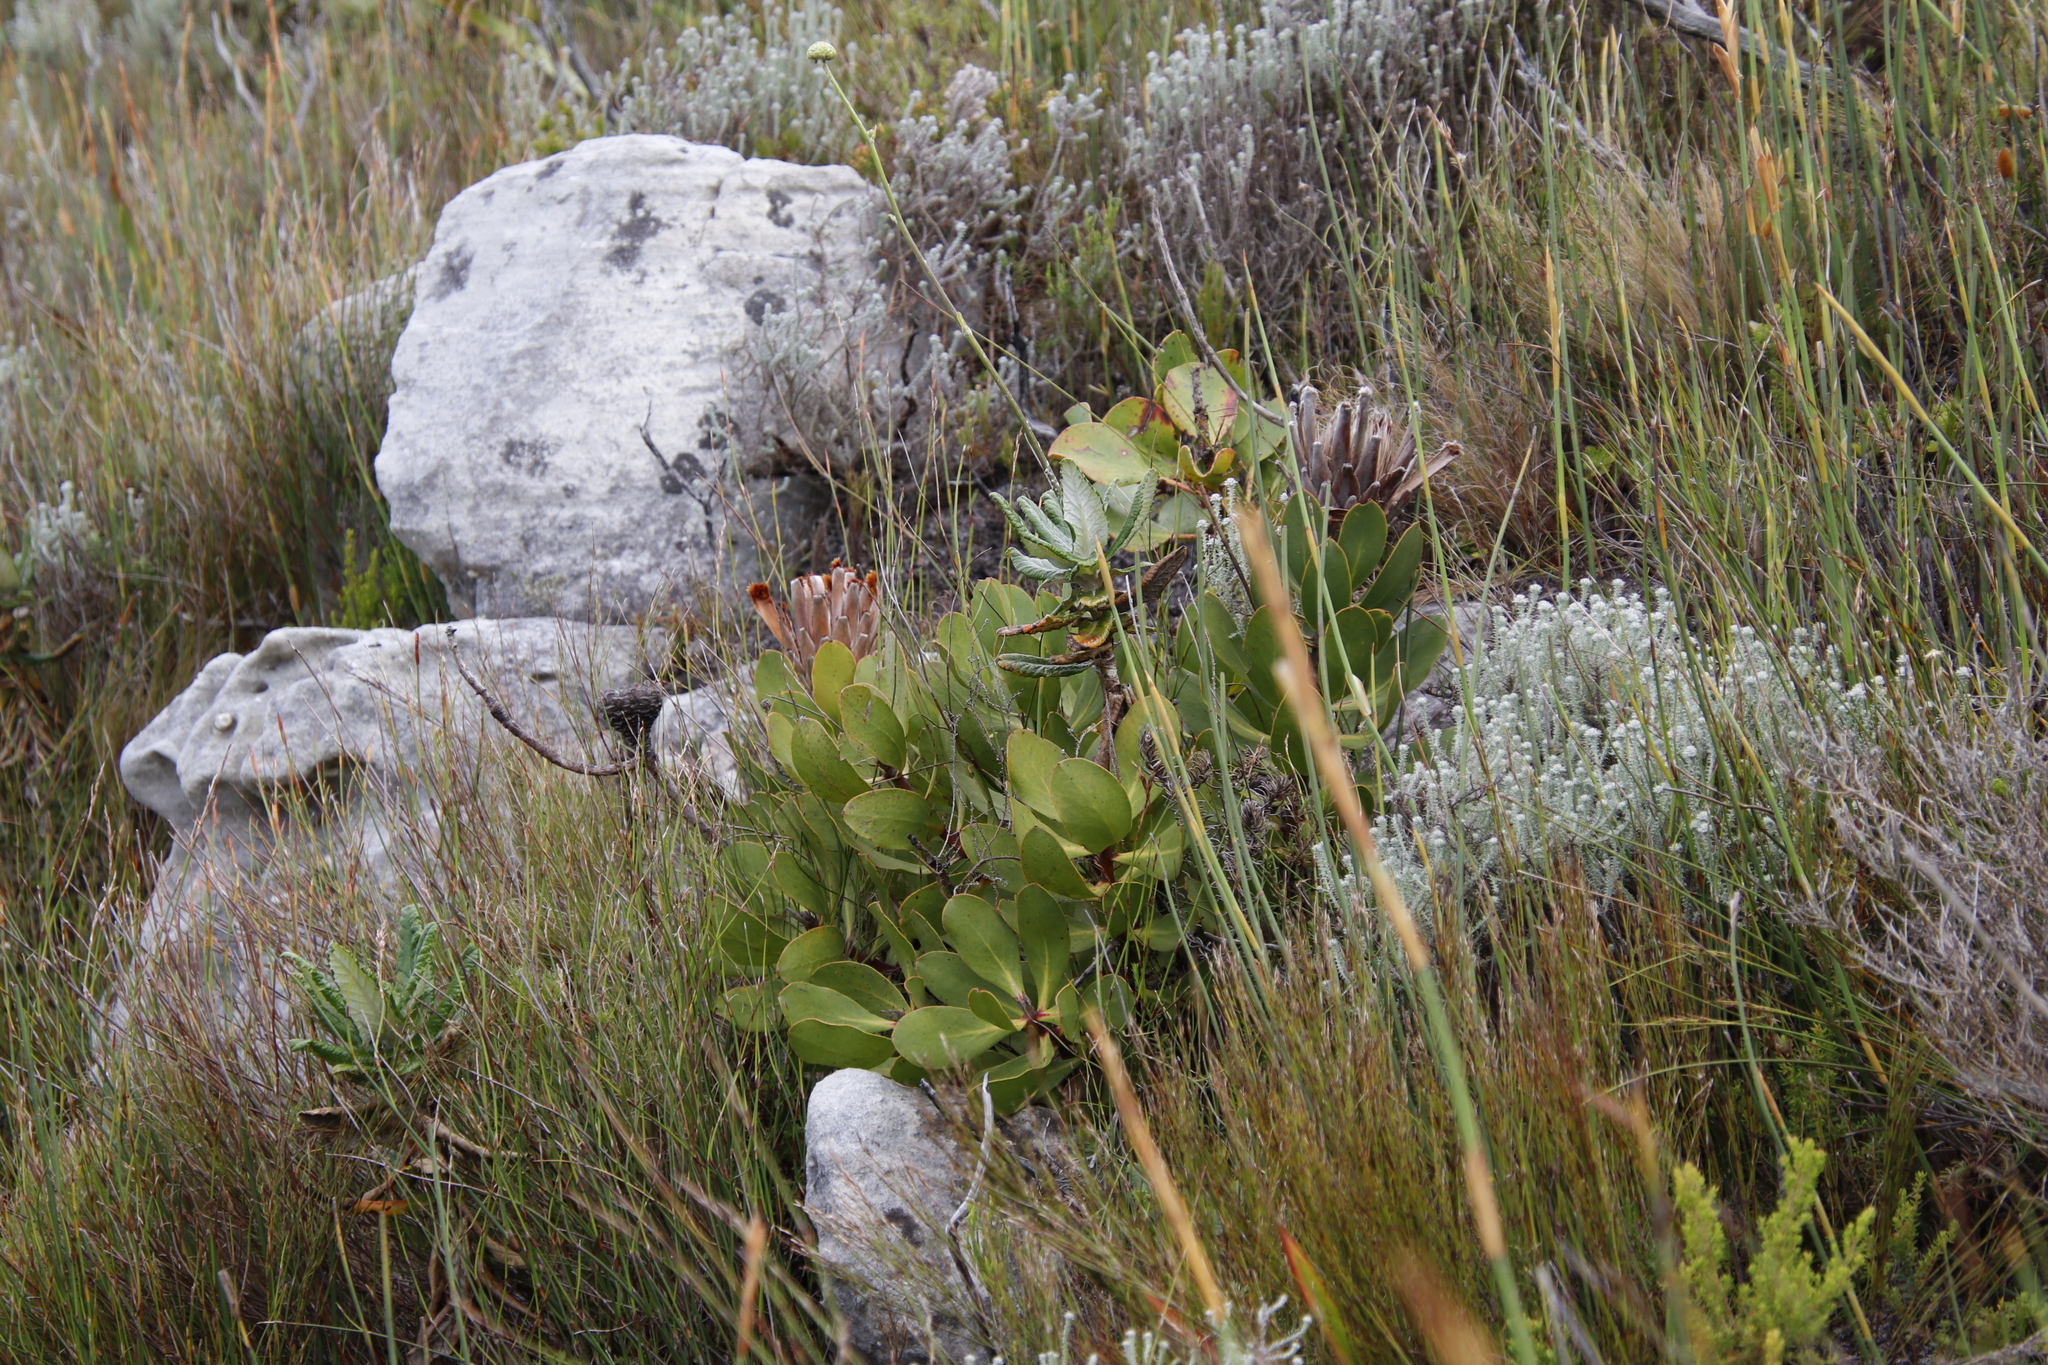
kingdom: Plantae
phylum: Tracheophyta
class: Magnoliopsida
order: Proteales
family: Proteaceae
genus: Protea
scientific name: Protea speciosa
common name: Brown-beard sugarbush
